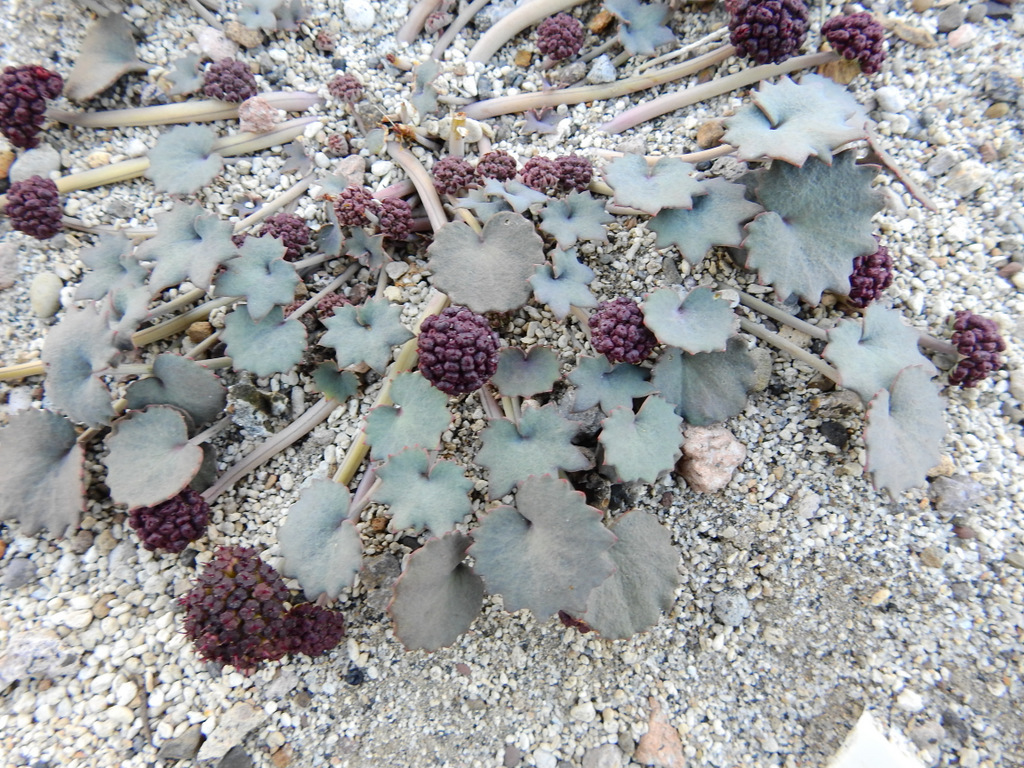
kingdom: Plantae
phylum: Tracheophyta
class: Magnoliopsida
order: Apiales
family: Apiaceae
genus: Pozoa
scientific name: Pozoa coriacea
